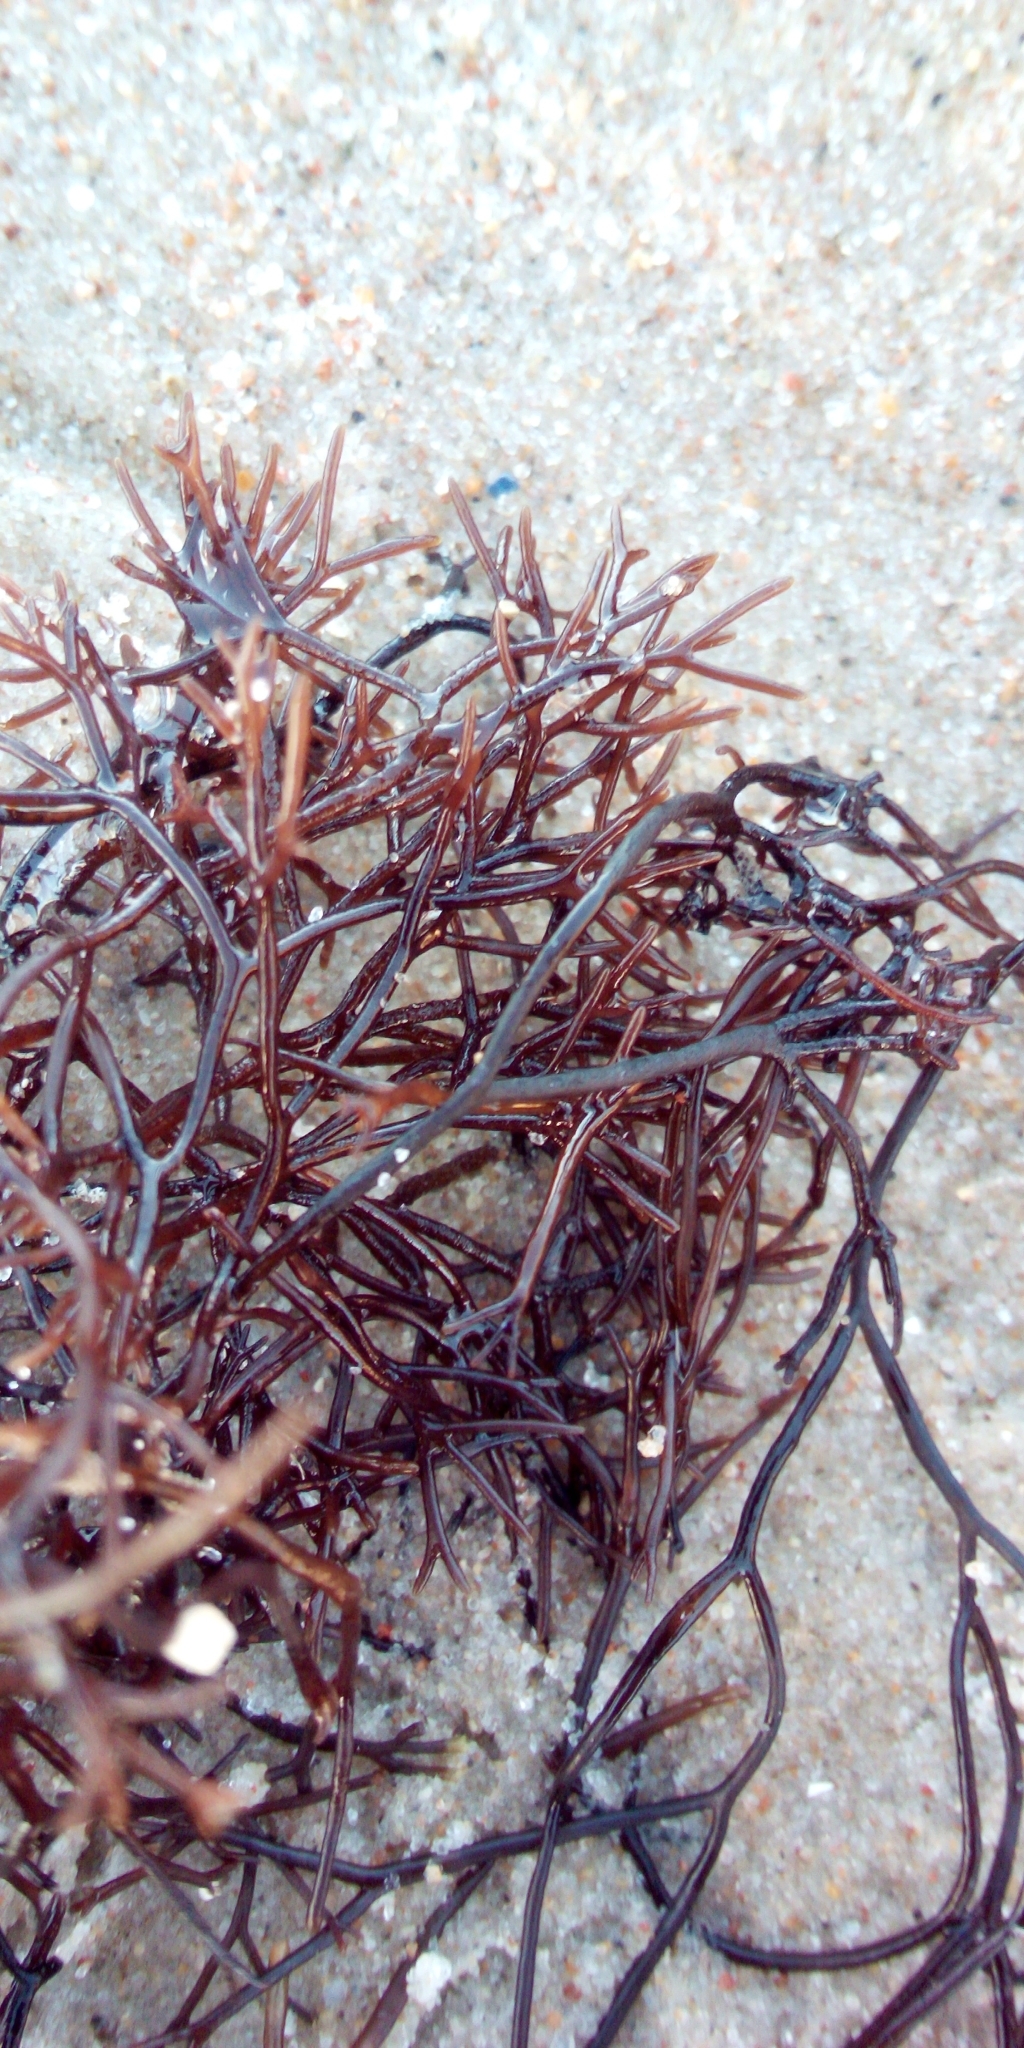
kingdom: Plantae
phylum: Rhodophyta
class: Florideophyceae
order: Gigartinales
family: Furcellariaceae
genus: Furcellaria
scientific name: Furcellaria lumbricalis
